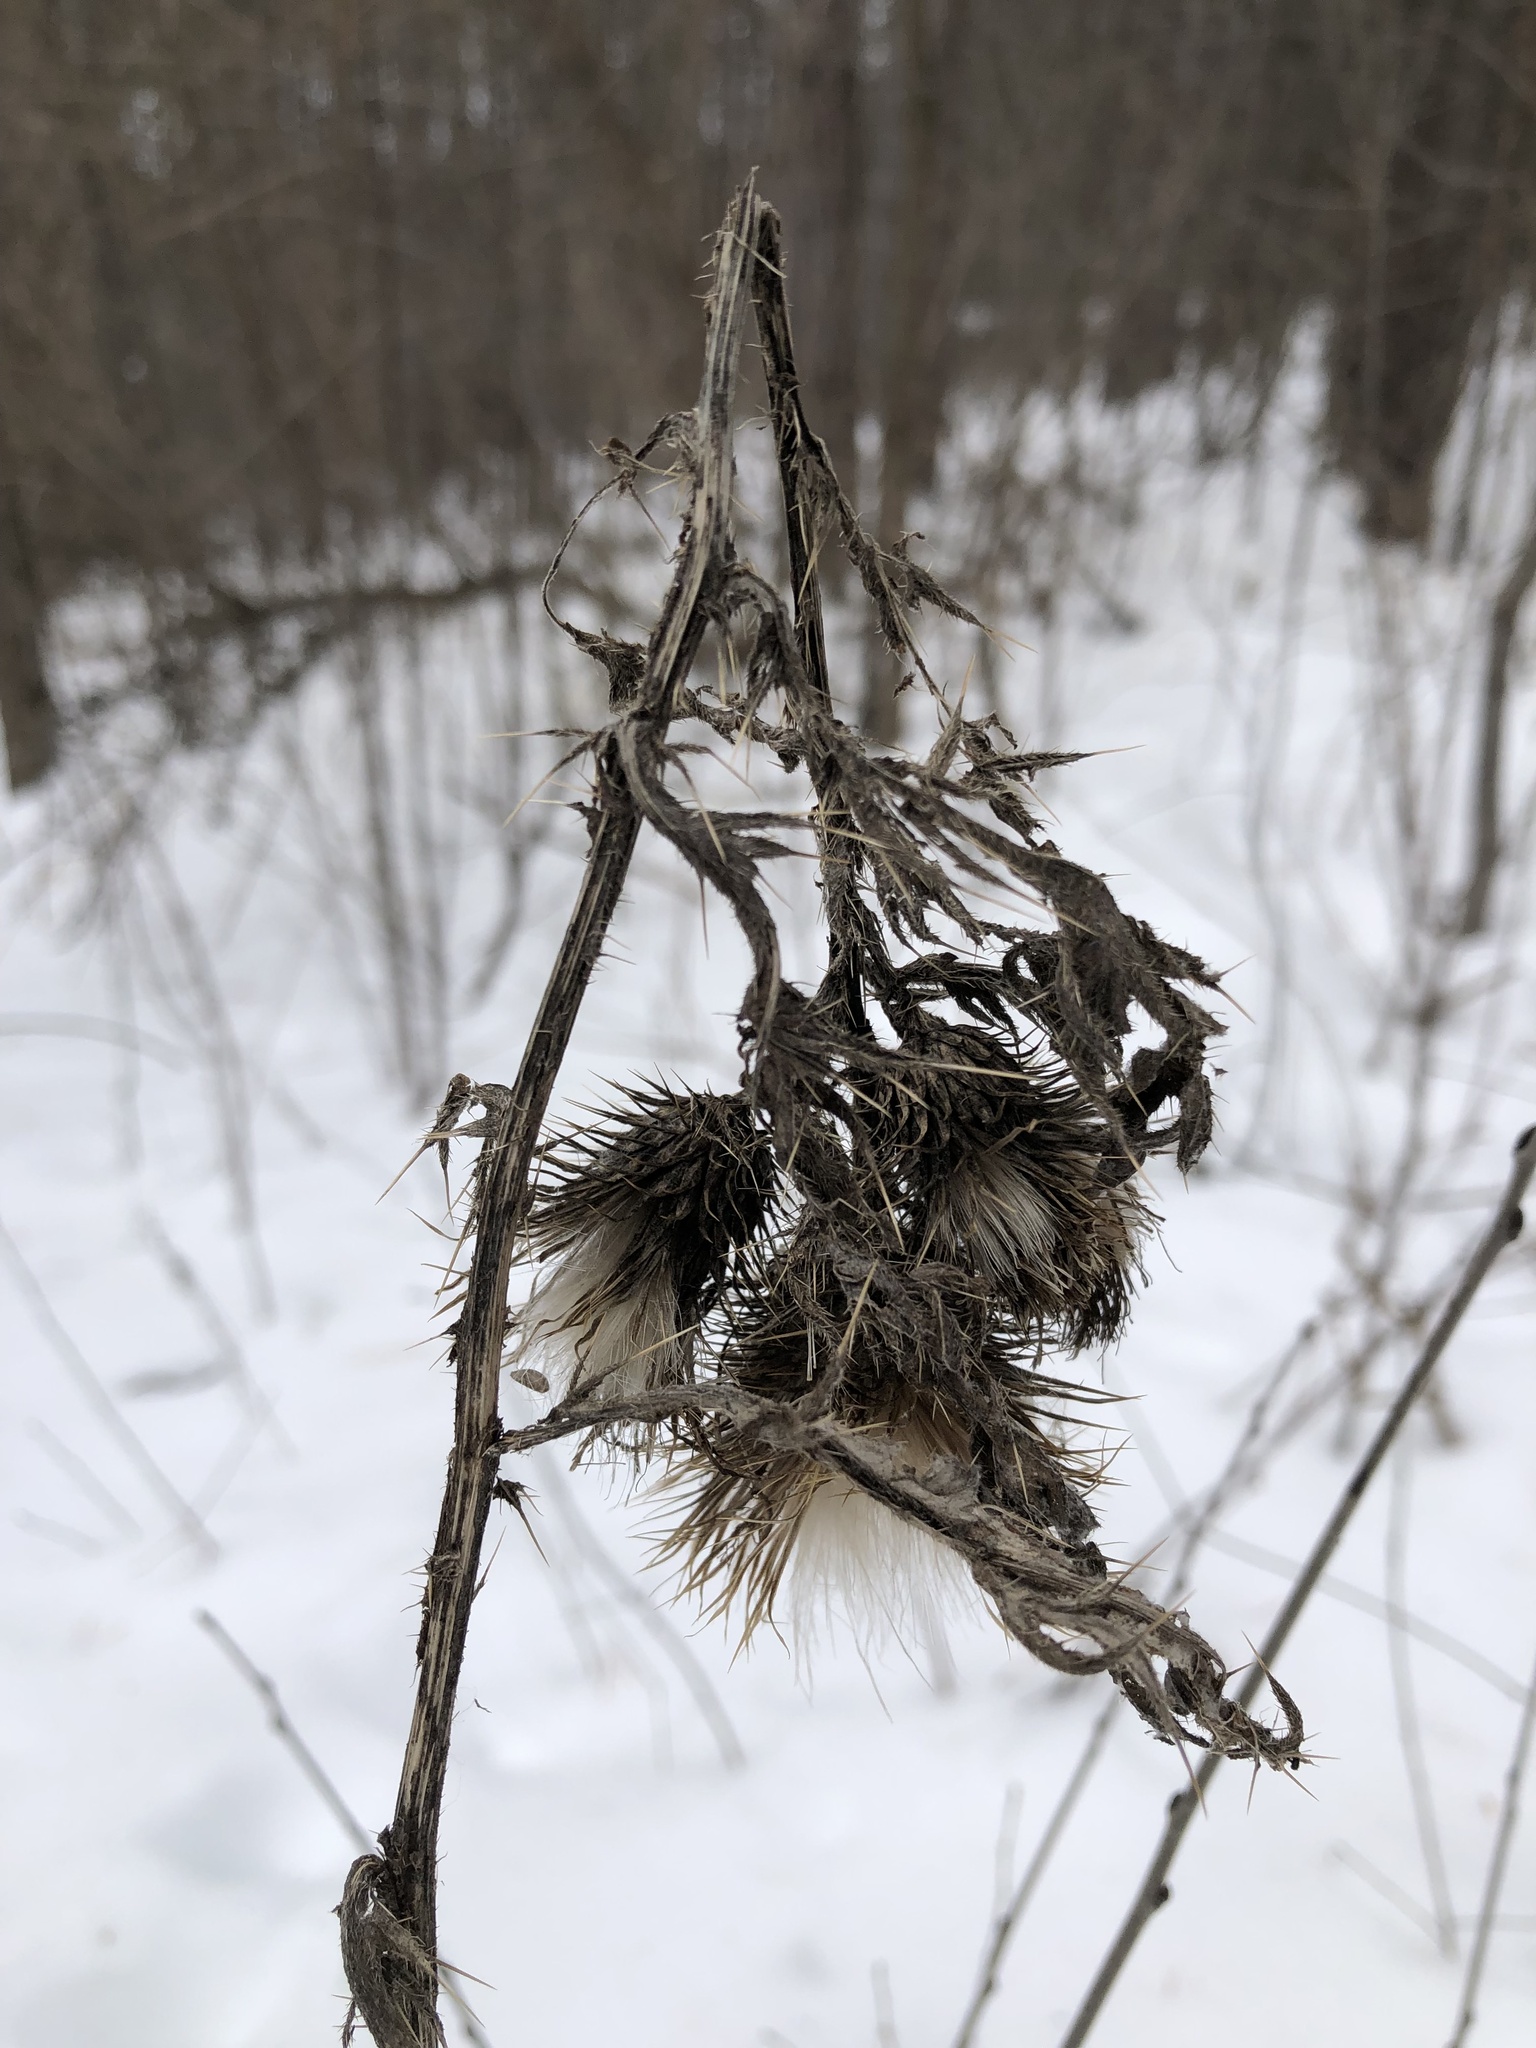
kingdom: Plantae
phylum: Tracheophyta
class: Magnoliopsida
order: Asterales
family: Asteraceae
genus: Cirsium
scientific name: Cirsium vulgare
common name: Bull thistle
